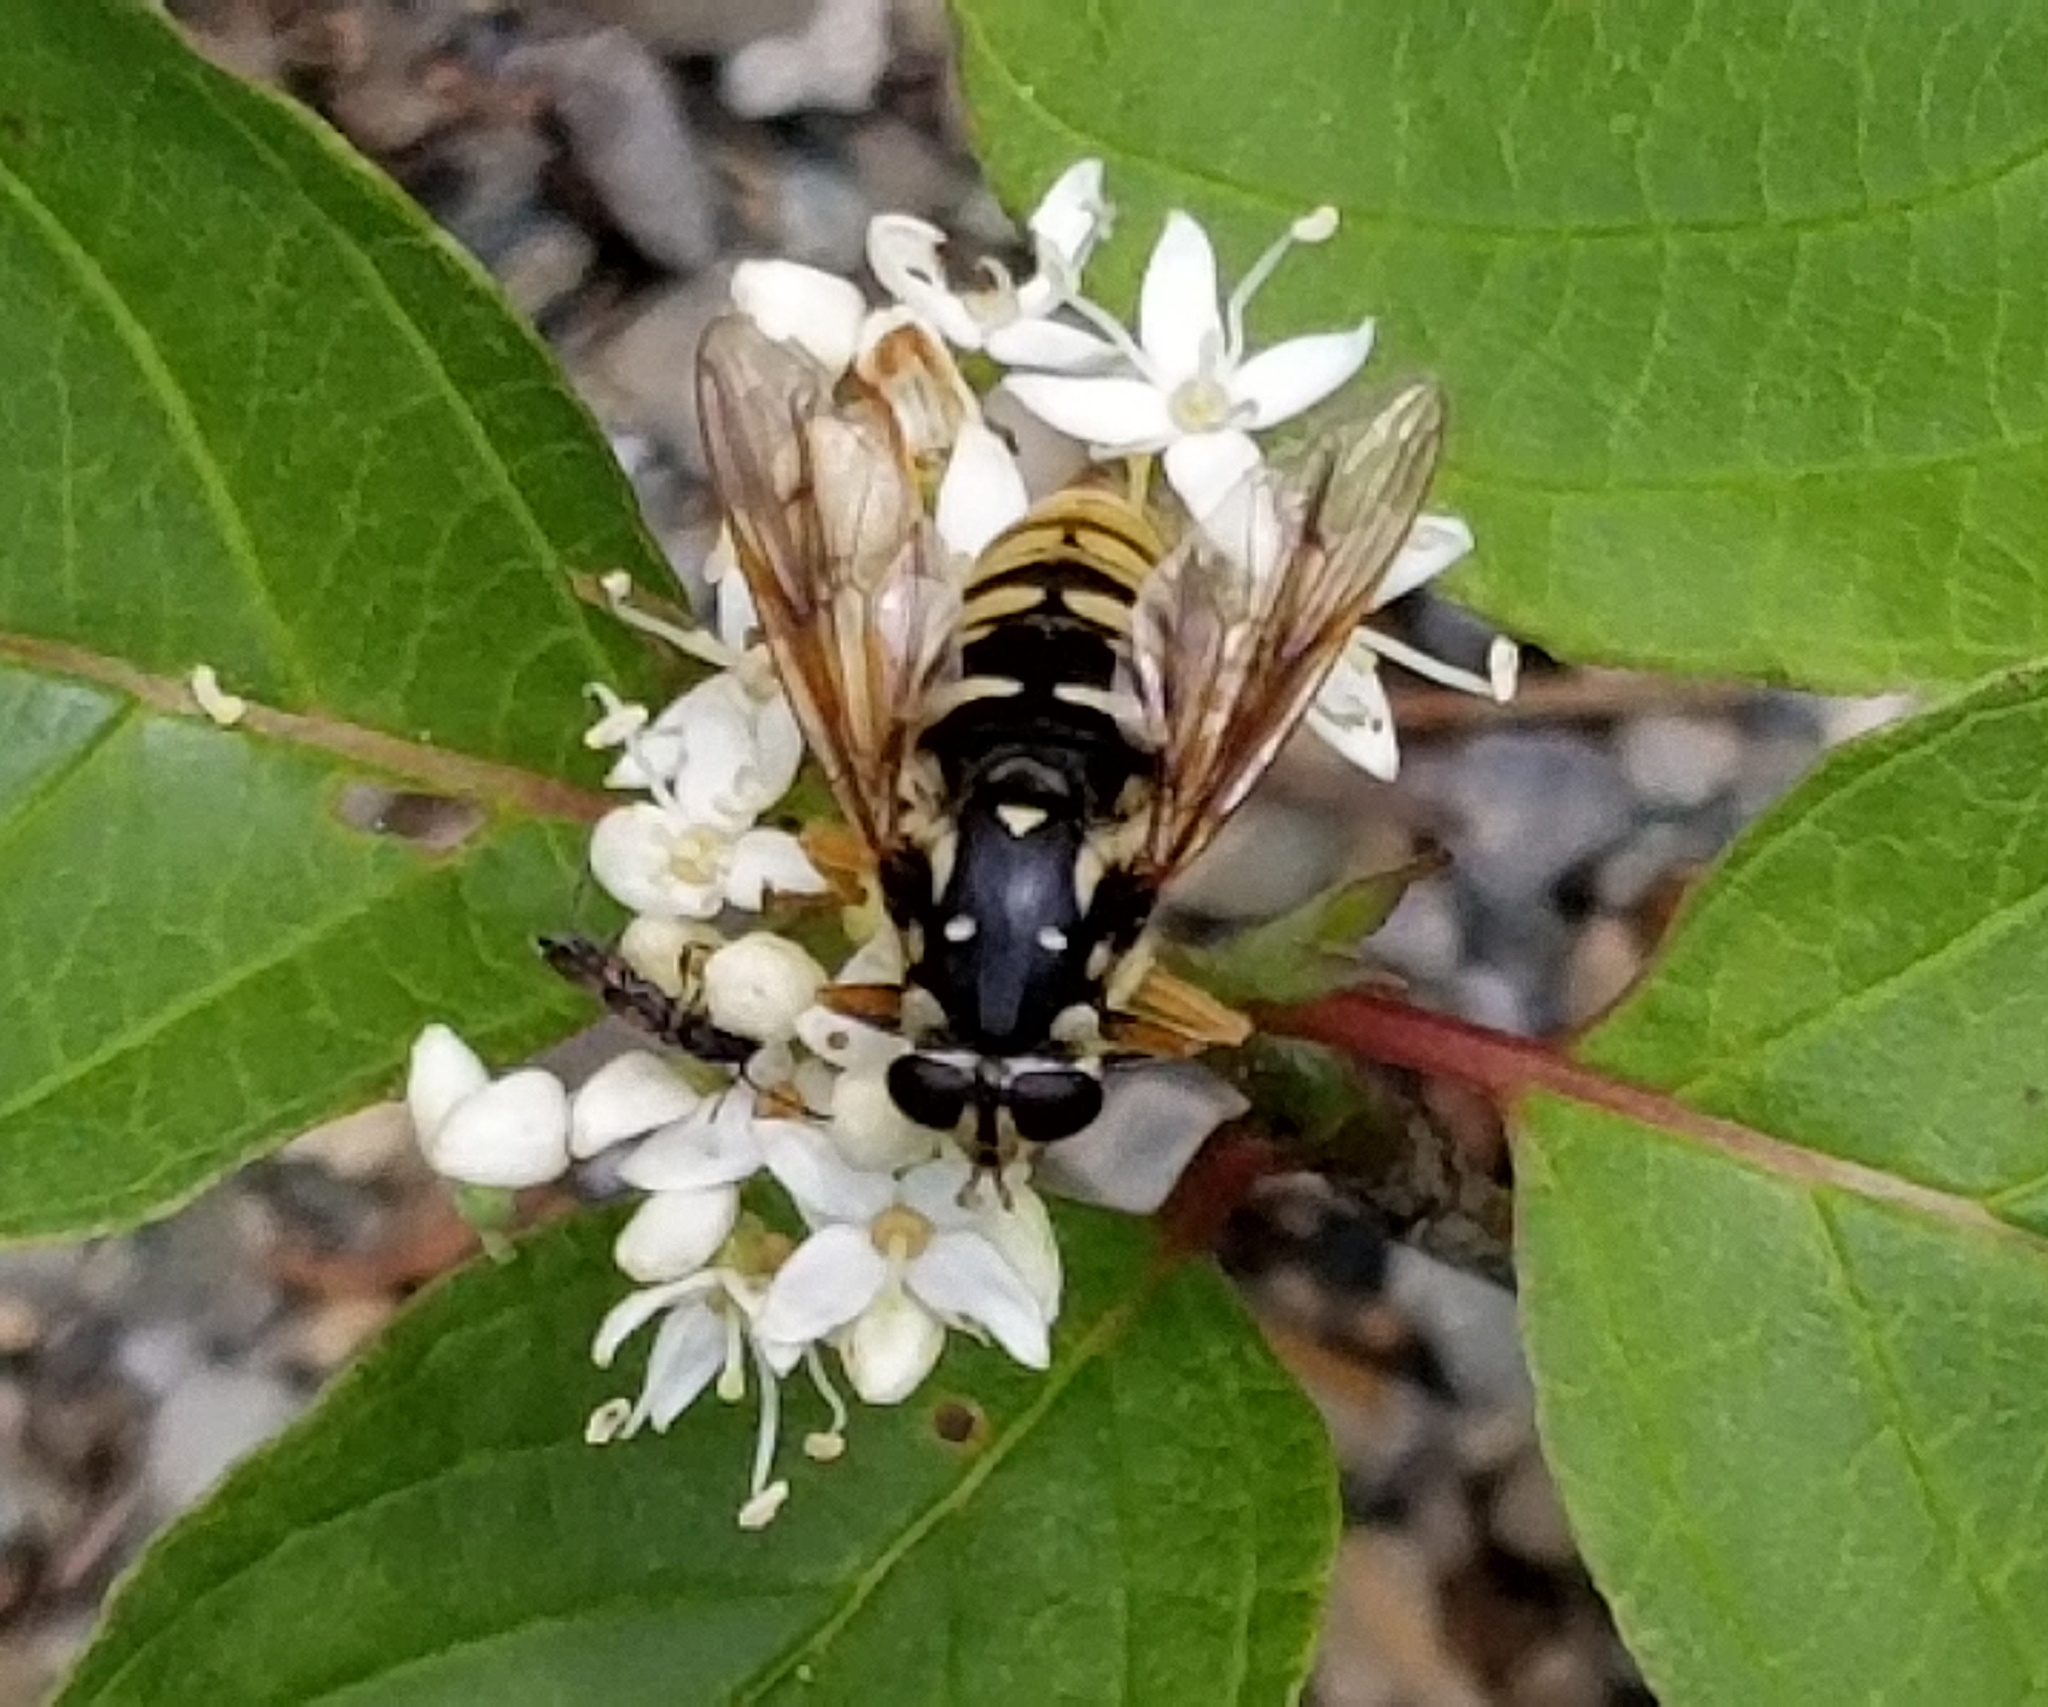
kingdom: Animalia
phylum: Arthropoda
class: Insecta
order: Diptera
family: Syrphidae
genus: Temnostoma
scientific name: Temnostoma alternans
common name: Wasp-like falsehorn
